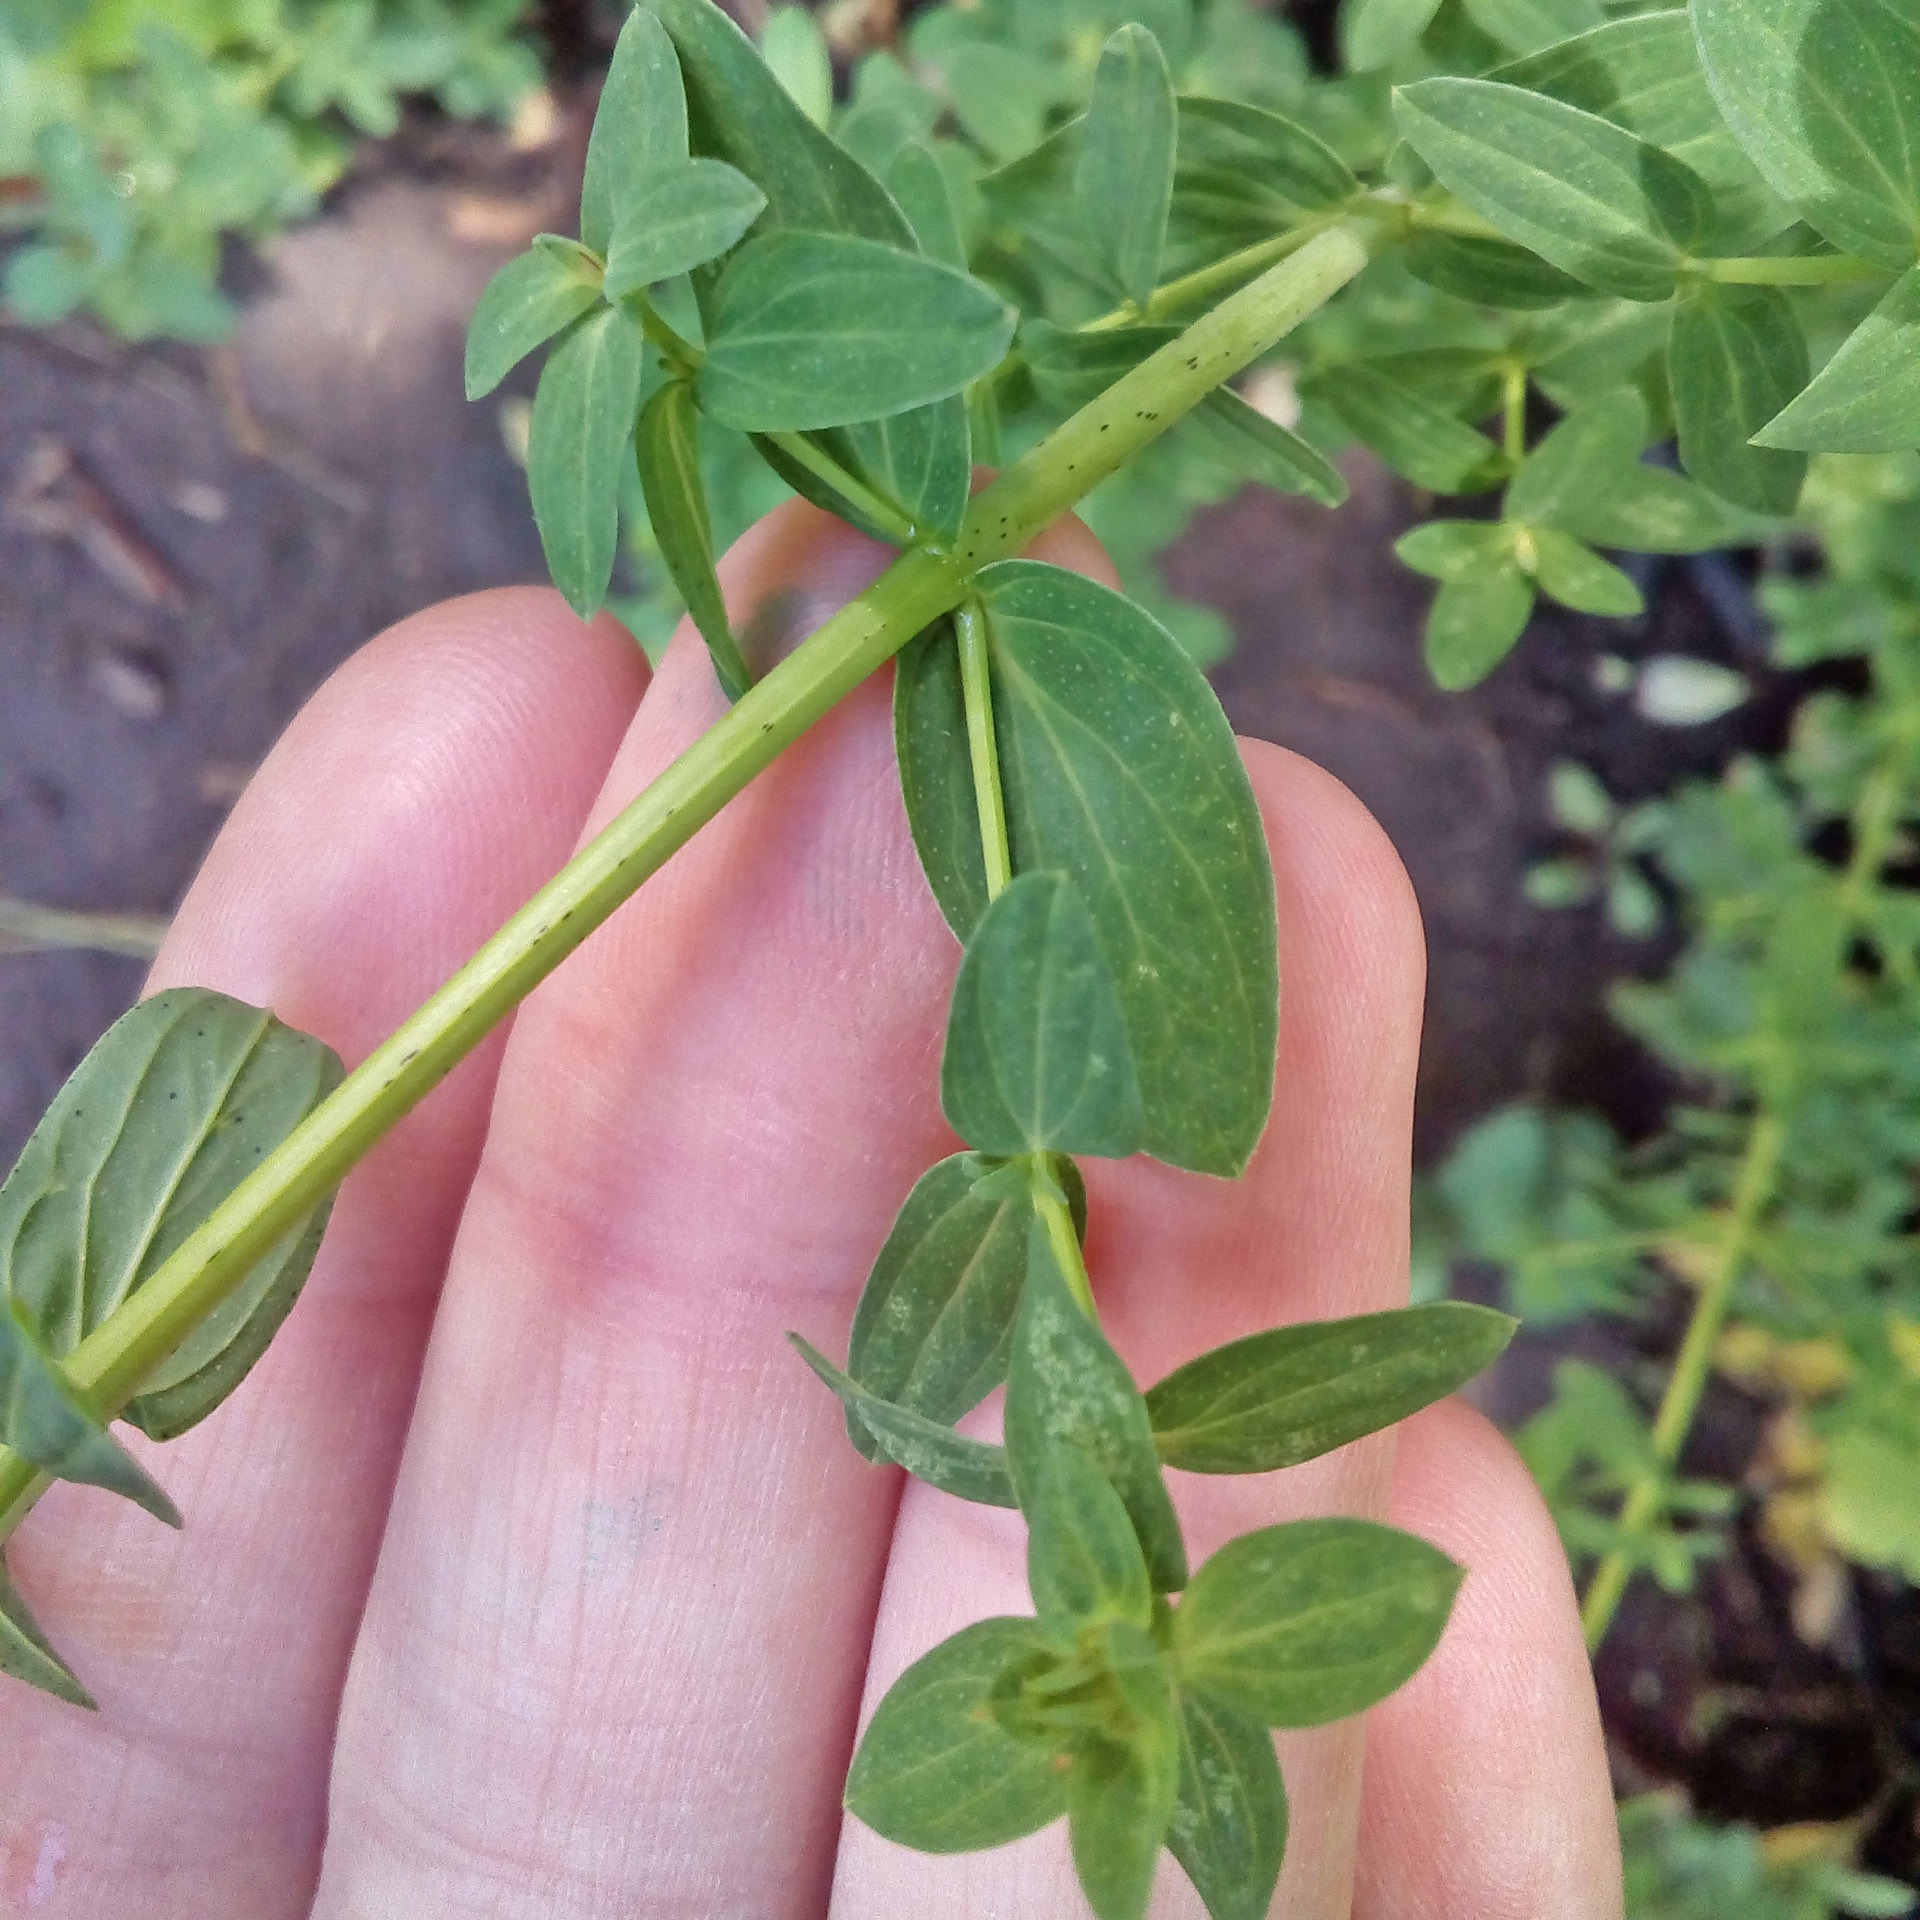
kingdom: Plantae
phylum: Tracheophyta
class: Magnoliopsida
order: Malpighiales
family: Hypericaceae
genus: Hypericum
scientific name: Hypericum perforatum
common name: Common st. johnswort
